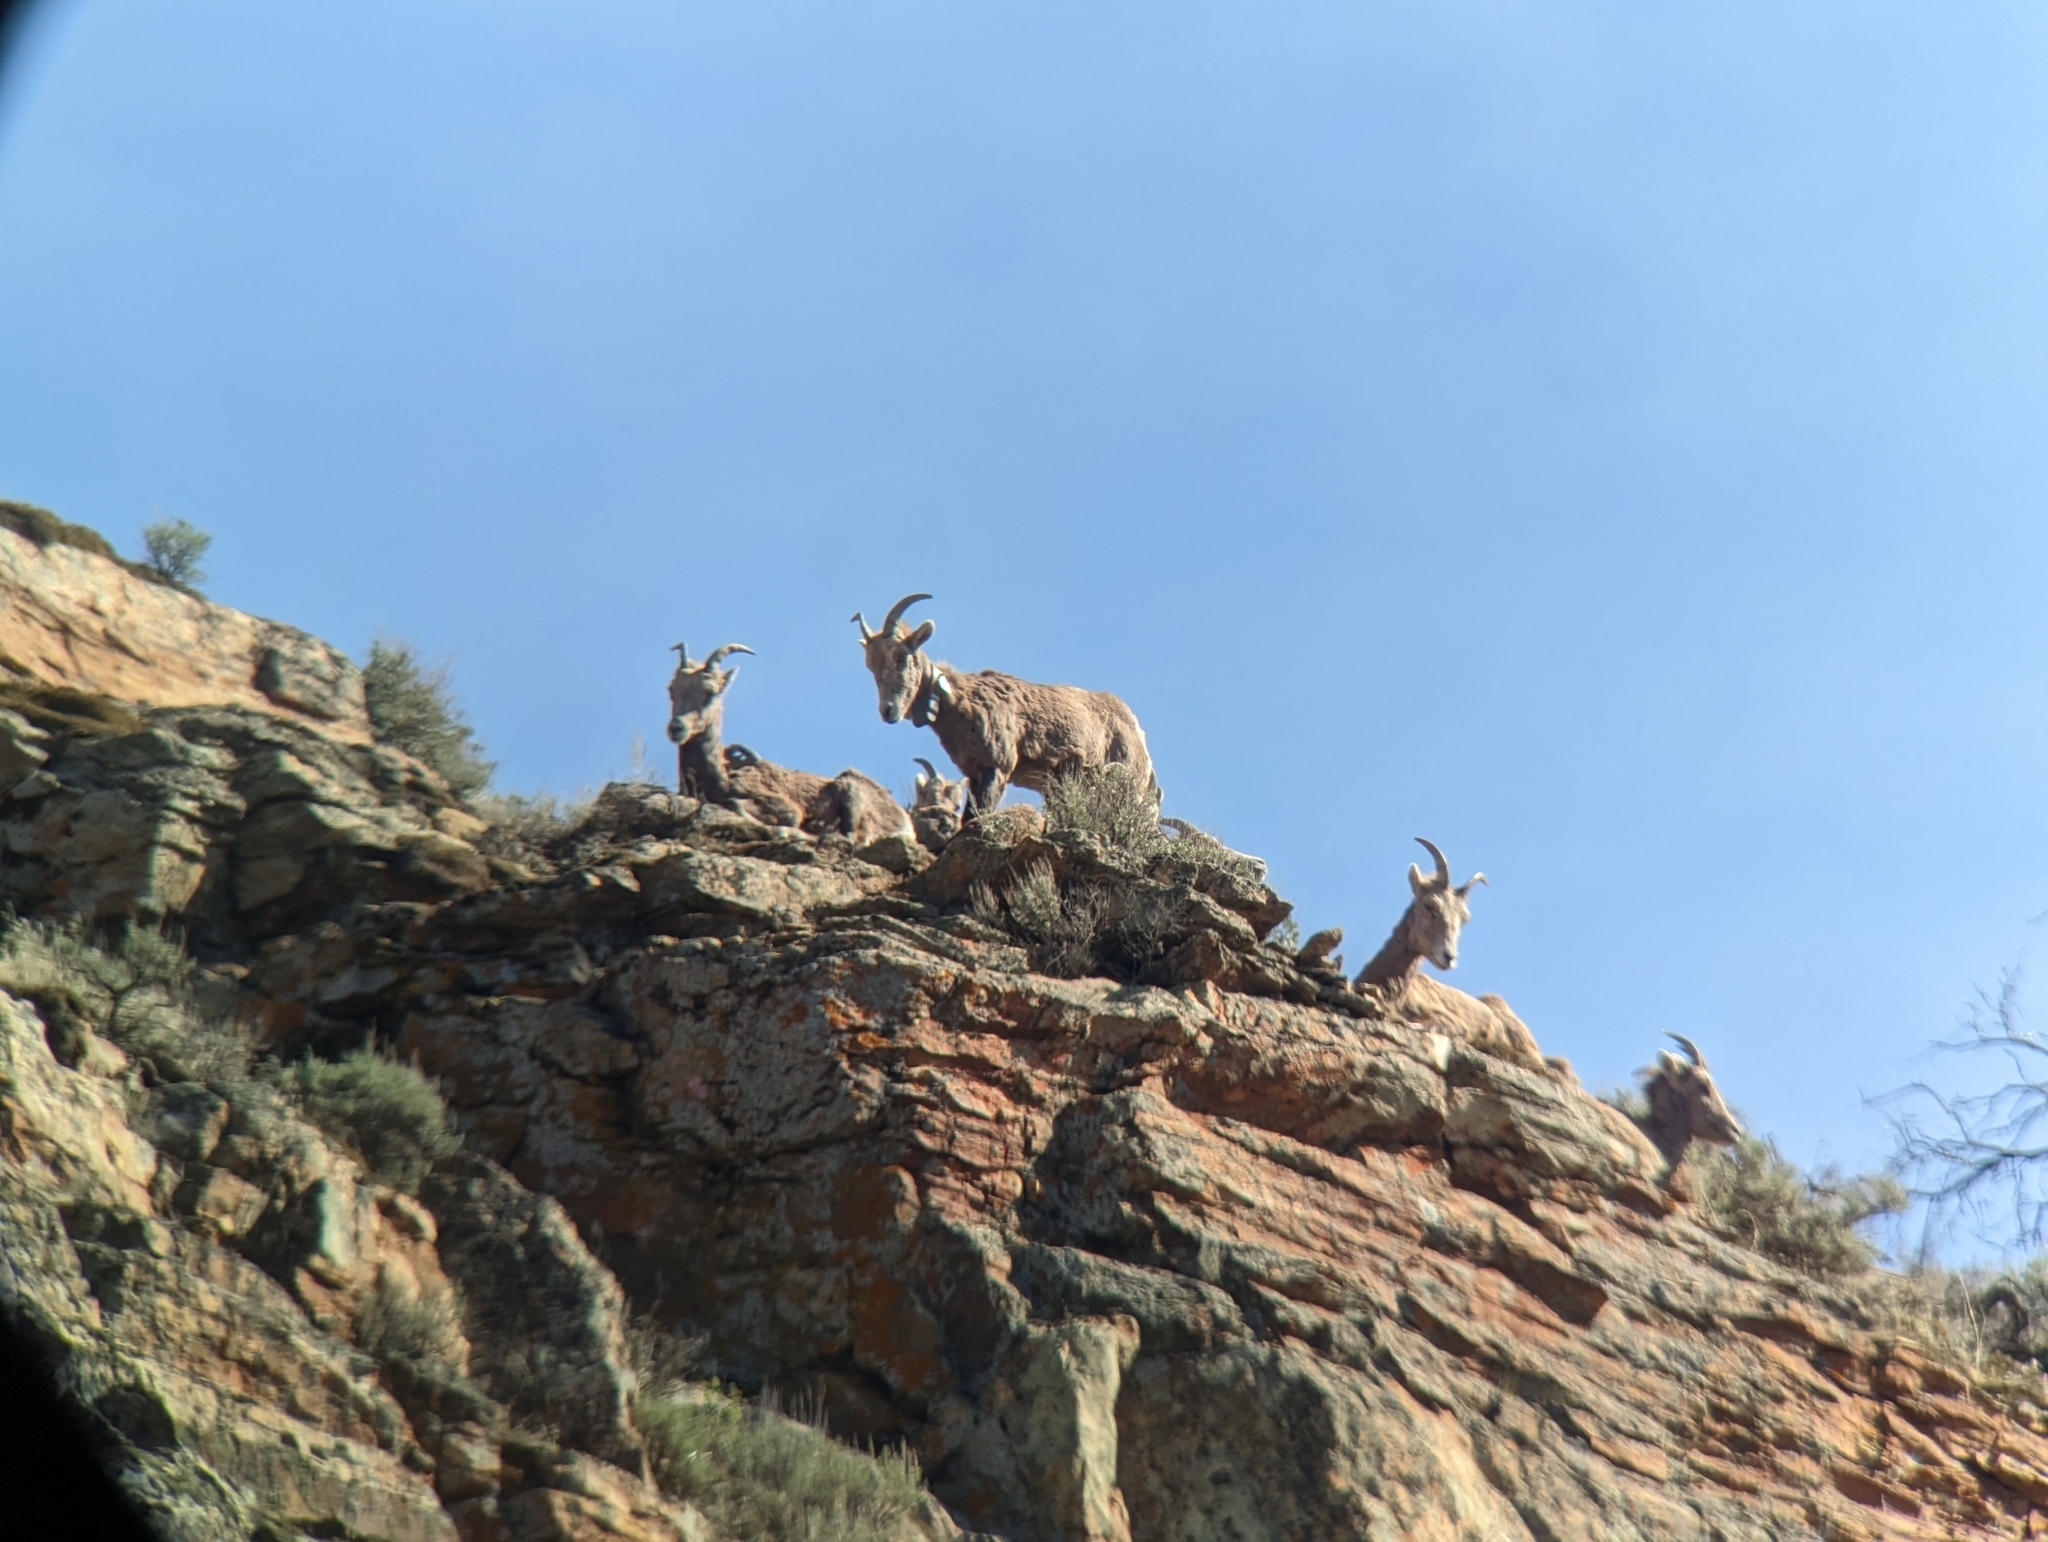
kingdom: Animalia
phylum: Chordata
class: Mammalia
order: Artiodactyla
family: Bovidae
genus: Ovis
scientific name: Ovis canadensis
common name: Bighorn sheep
